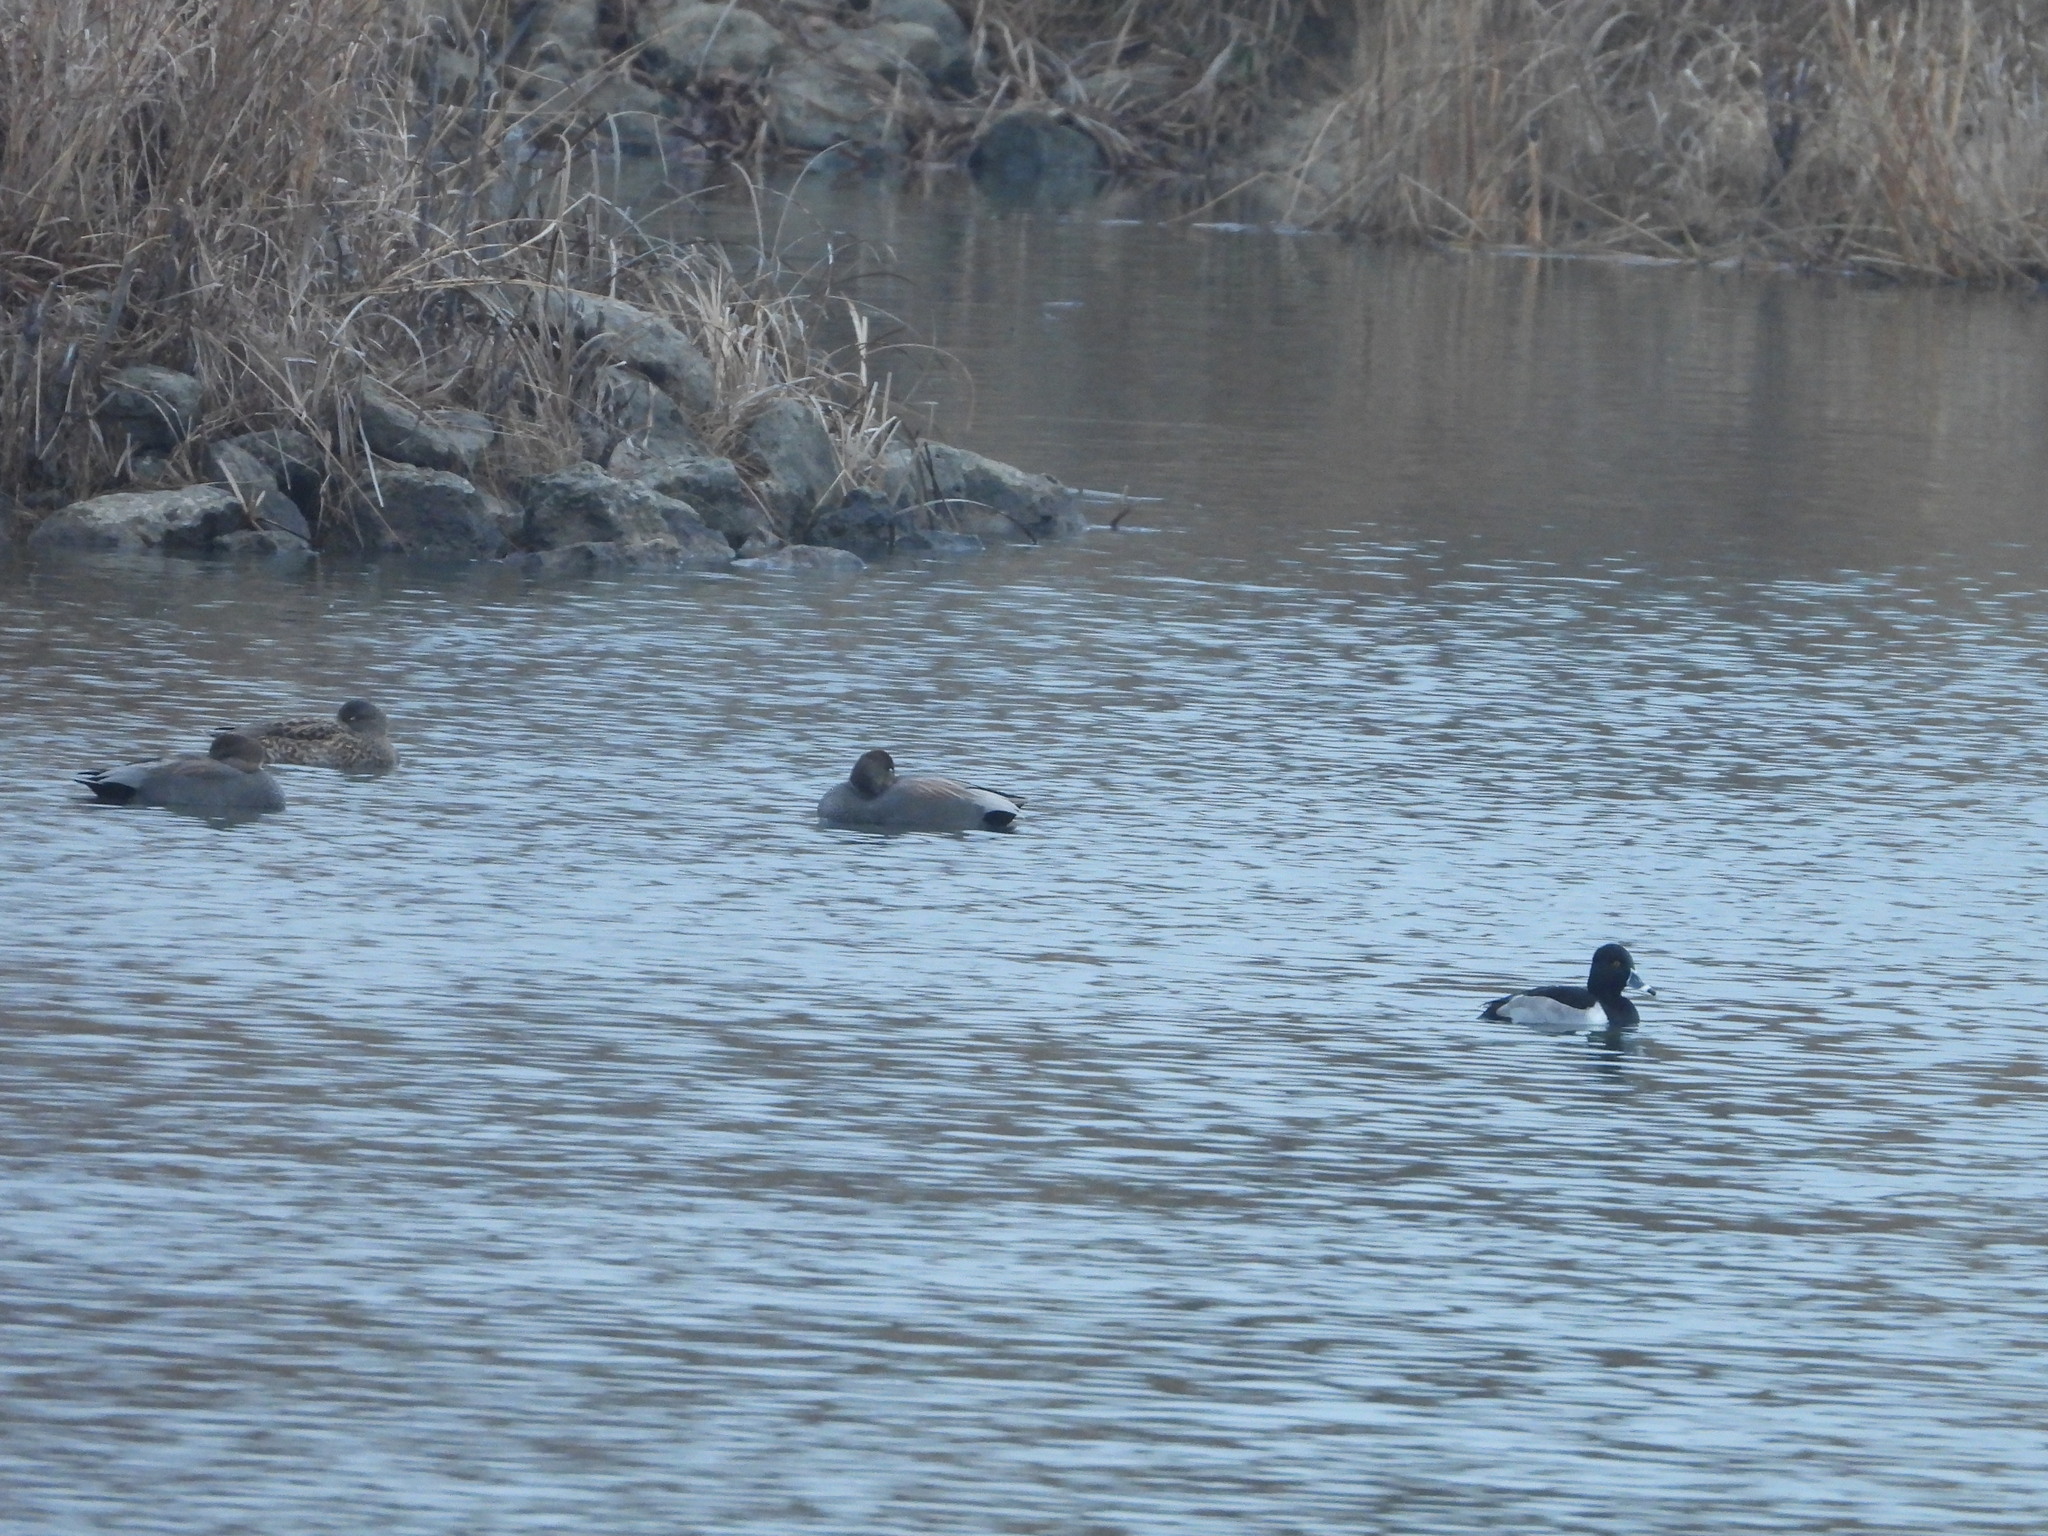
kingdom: Animalia
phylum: Chordata
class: Aves
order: Anseriformes
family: Anatidae
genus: Mareca
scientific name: Mareca strepera
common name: Gadwall
